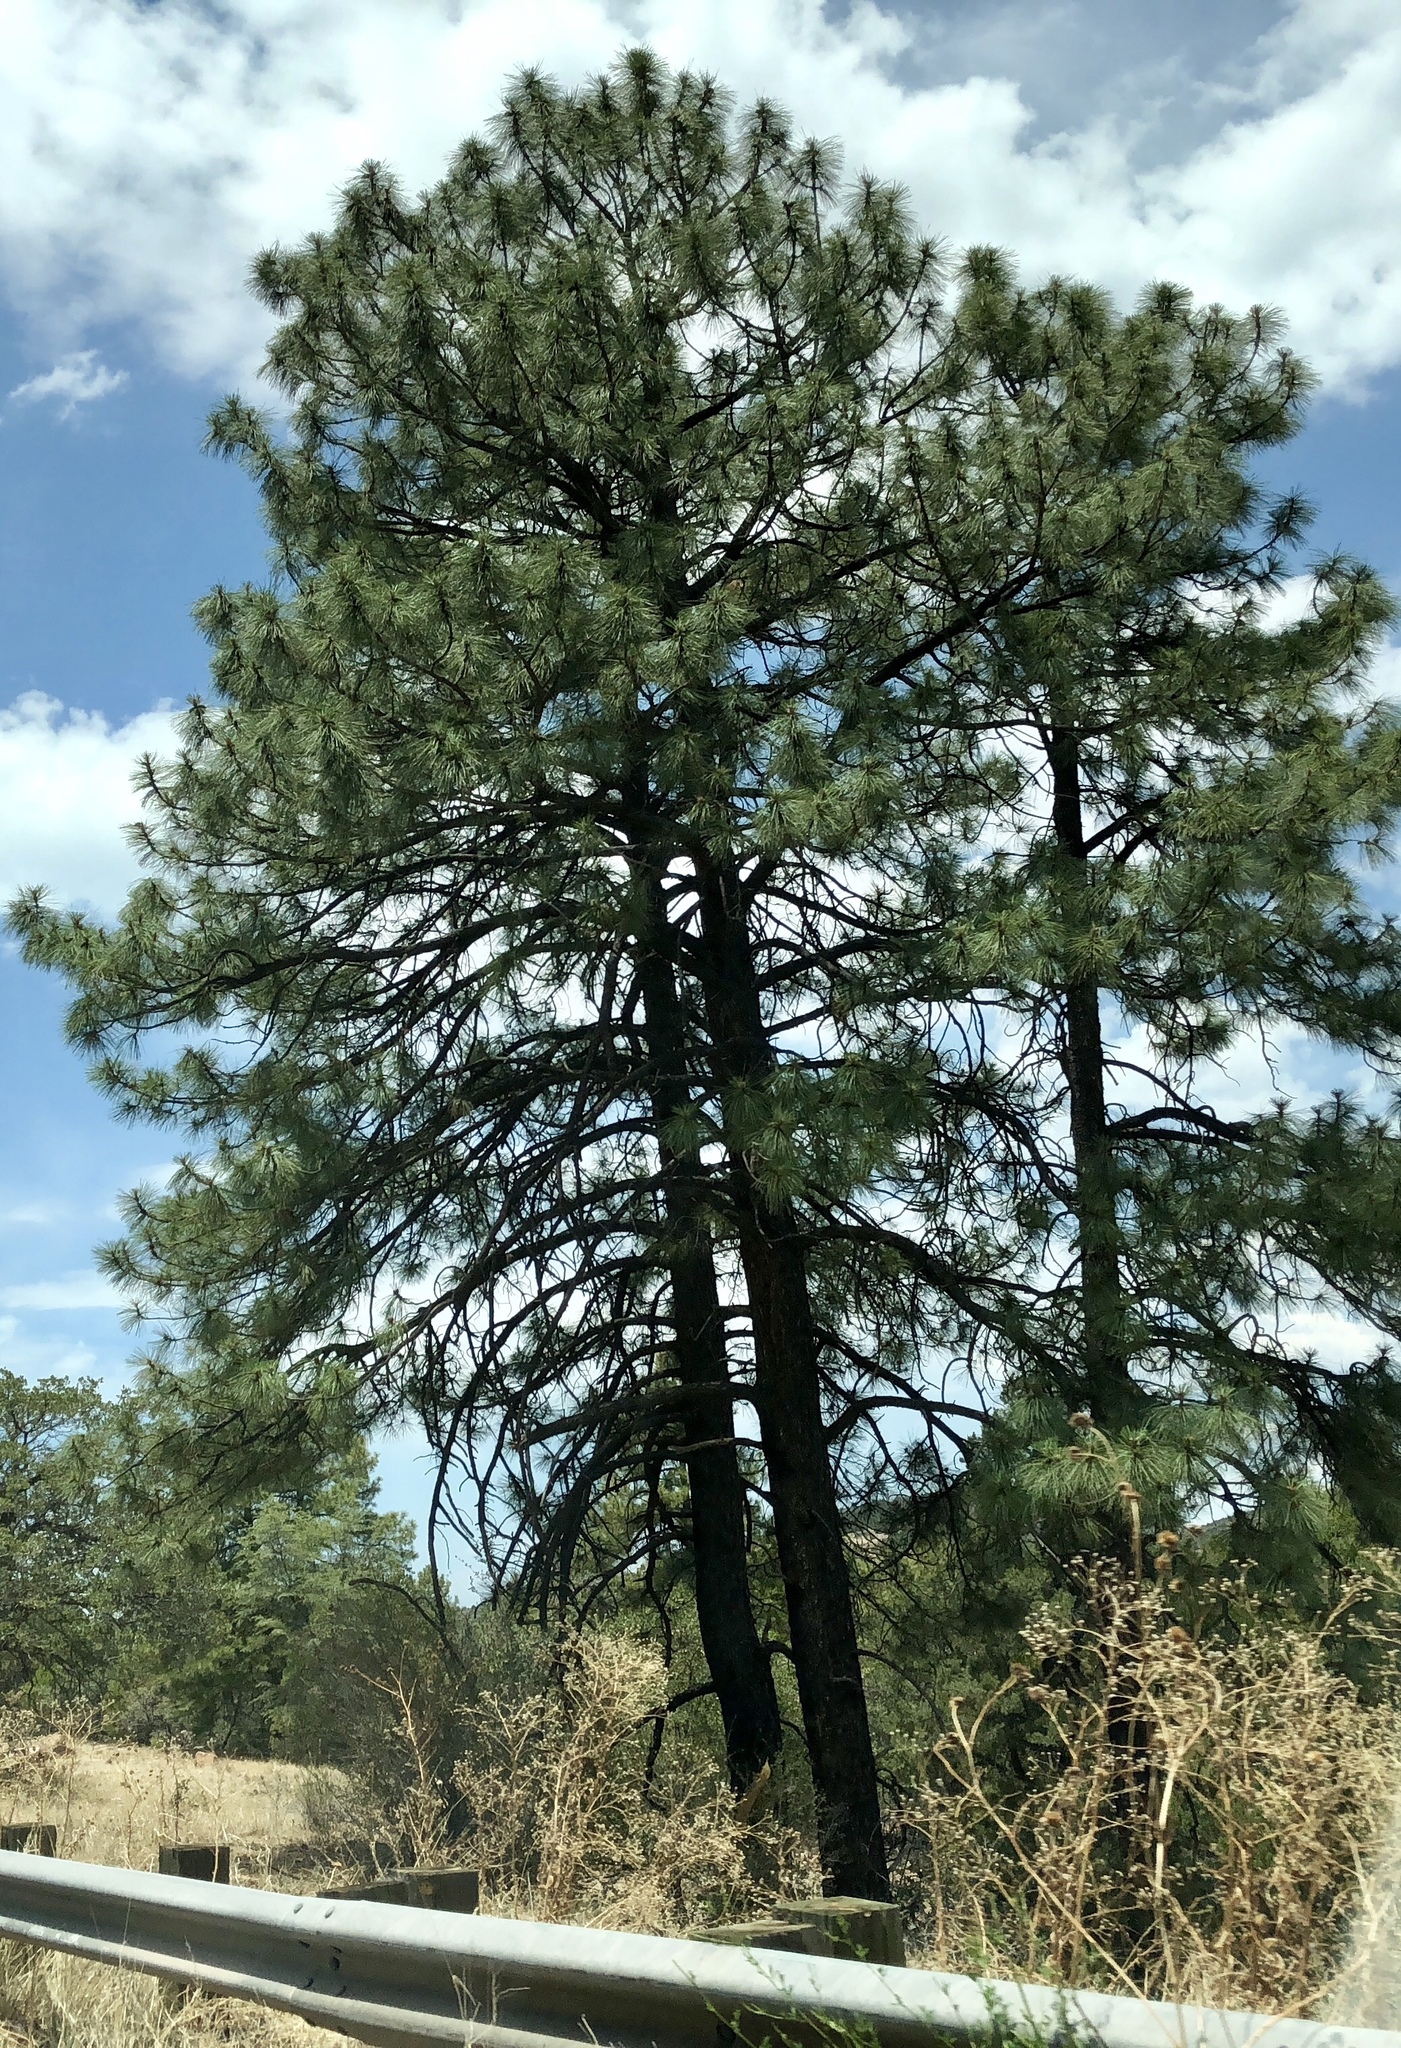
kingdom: Plantae
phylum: Tracheophyta
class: Pinopsida
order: Pinales
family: Pinaceae
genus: Pinus
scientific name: Pinus ponderosa
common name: Western yellow-pine
